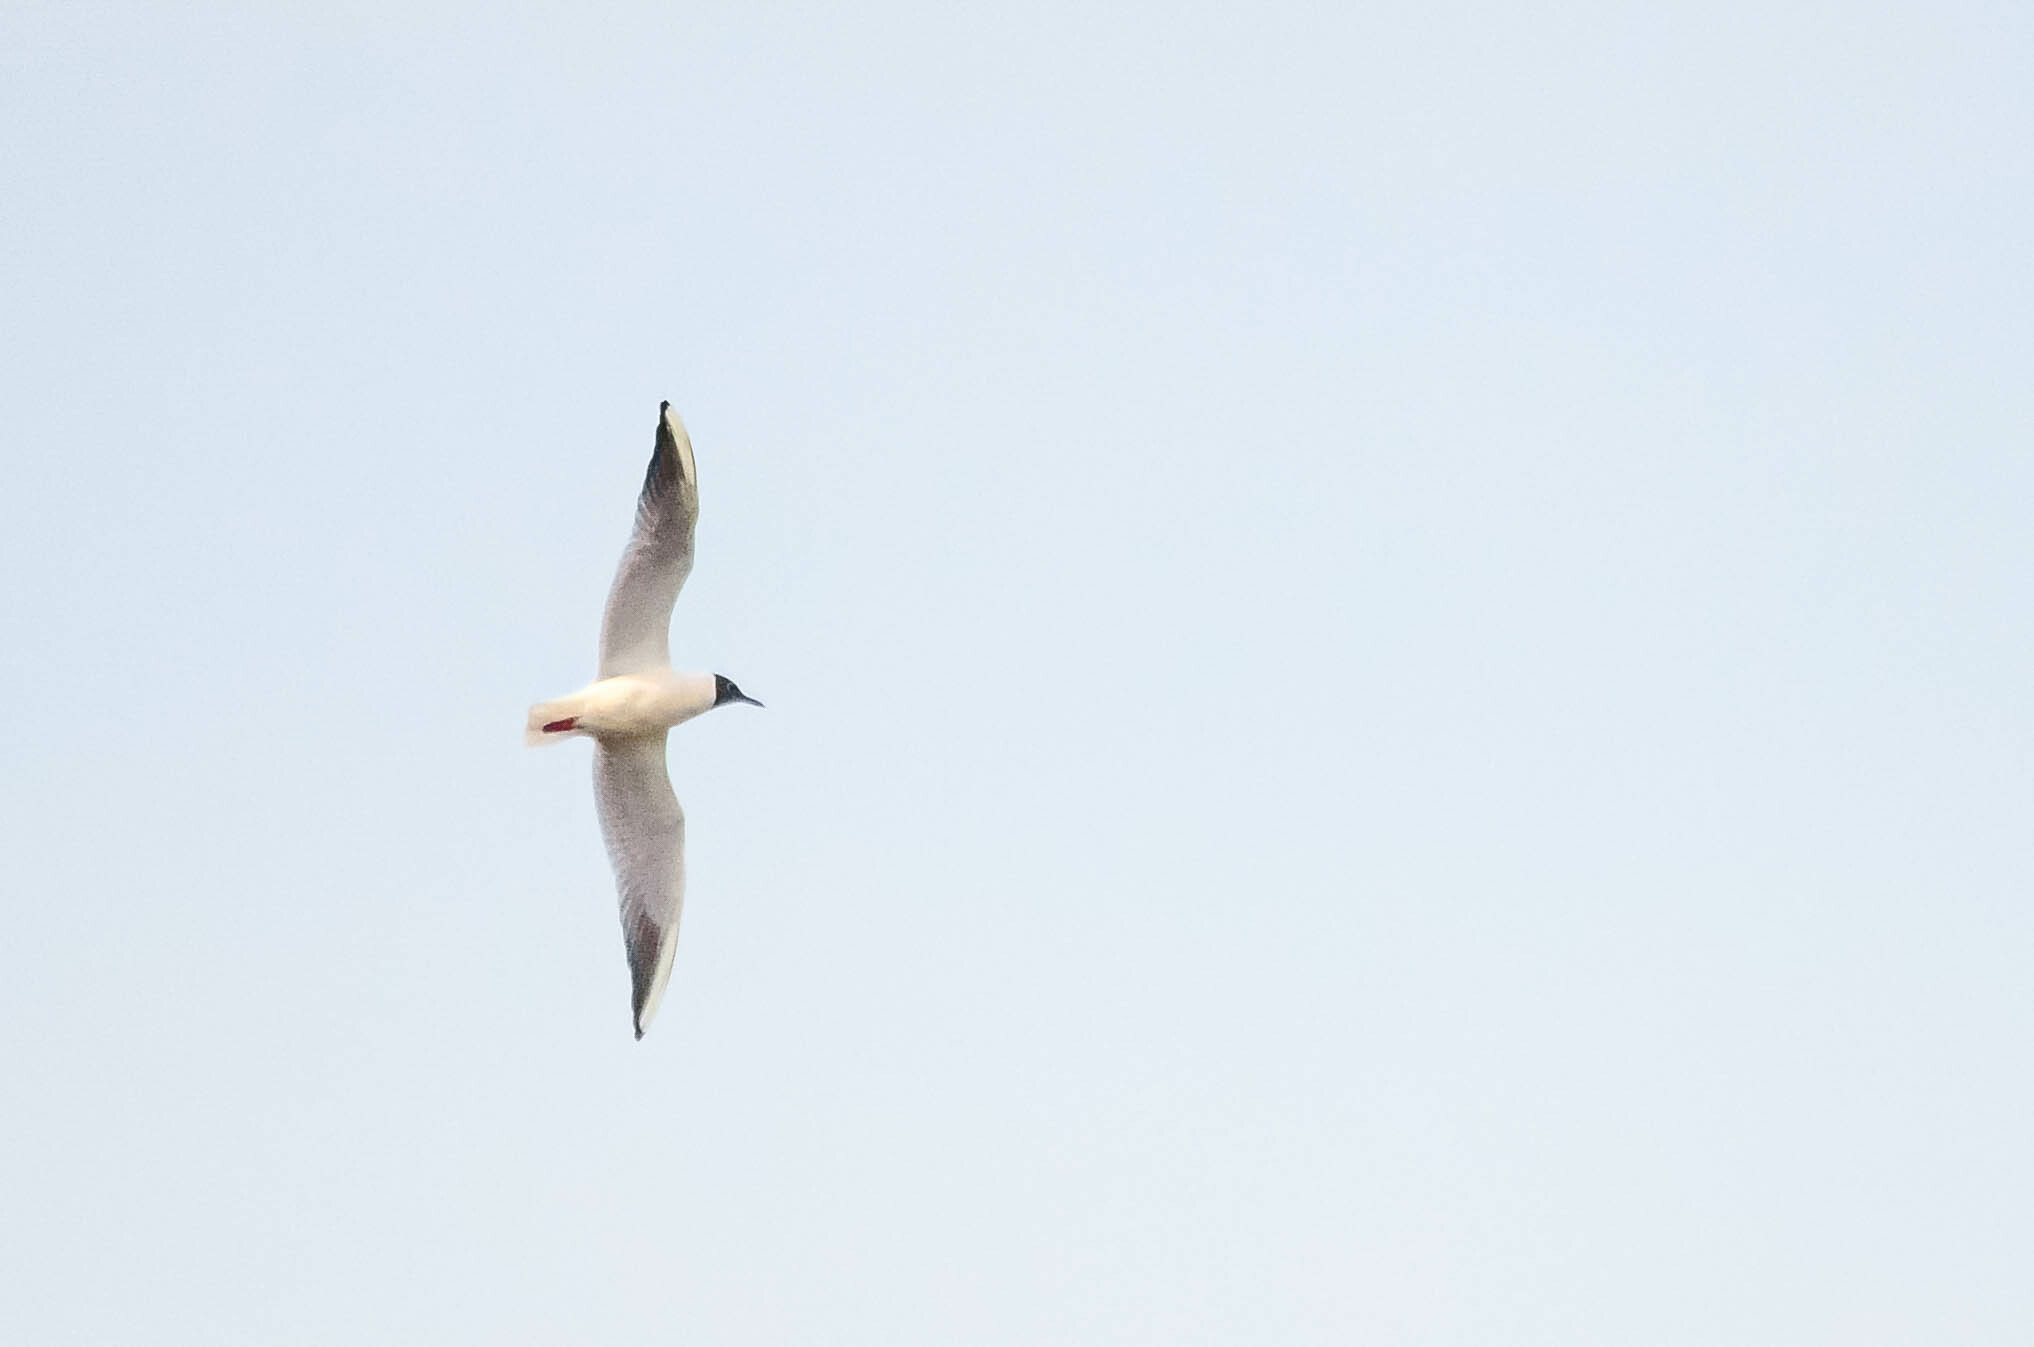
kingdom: Animalia
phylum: Chordata
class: Aves
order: Charadriiformes
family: Laridae
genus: Chroicocephalus
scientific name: Chroicocephalus ridibundus
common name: Black-headed gull
